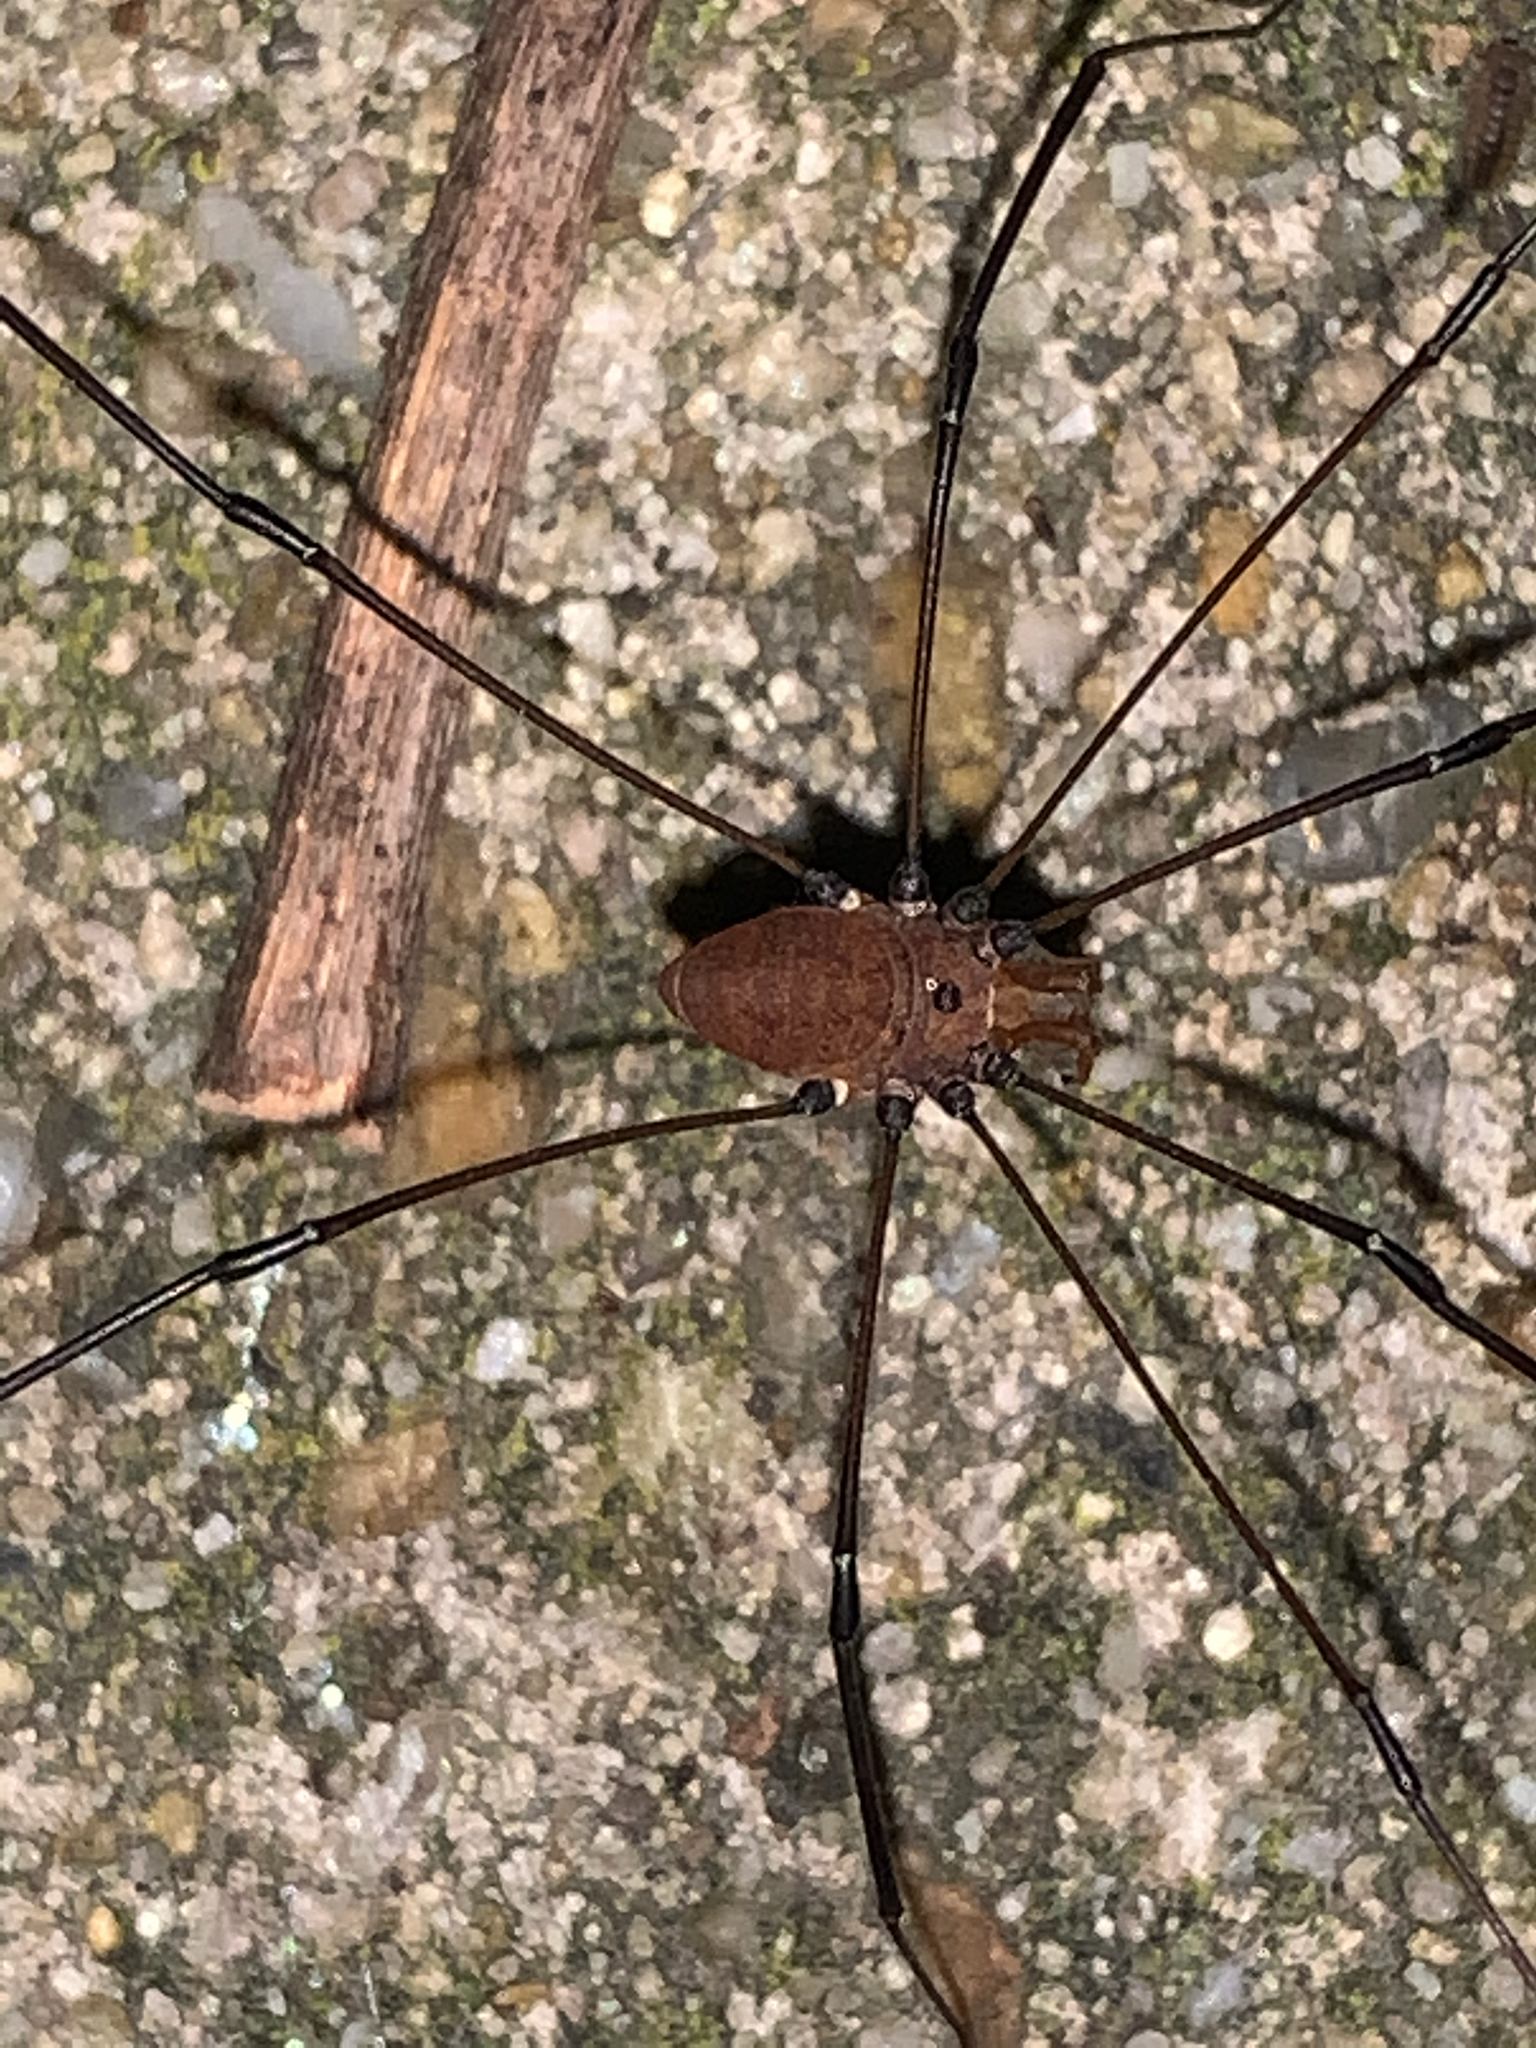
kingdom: Animalia
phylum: Arthropoda
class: Arachnida
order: Opiliones
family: Sclerosomatidae
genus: Leiobunum
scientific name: Leiobunum vittatum
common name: Eastern harvestman
